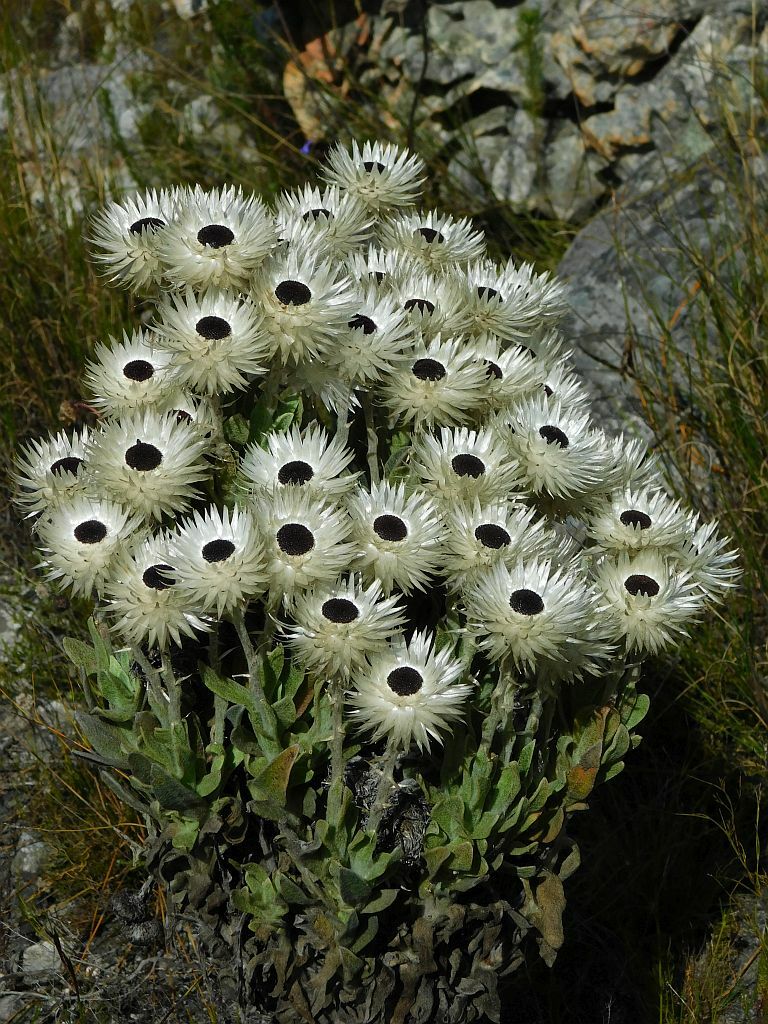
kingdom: Plantae
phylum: Tracheophyta
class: Magnoliopsida
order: Asterales
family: Asteraceae
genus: Syncarpha
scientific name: Syncarpha vestita
